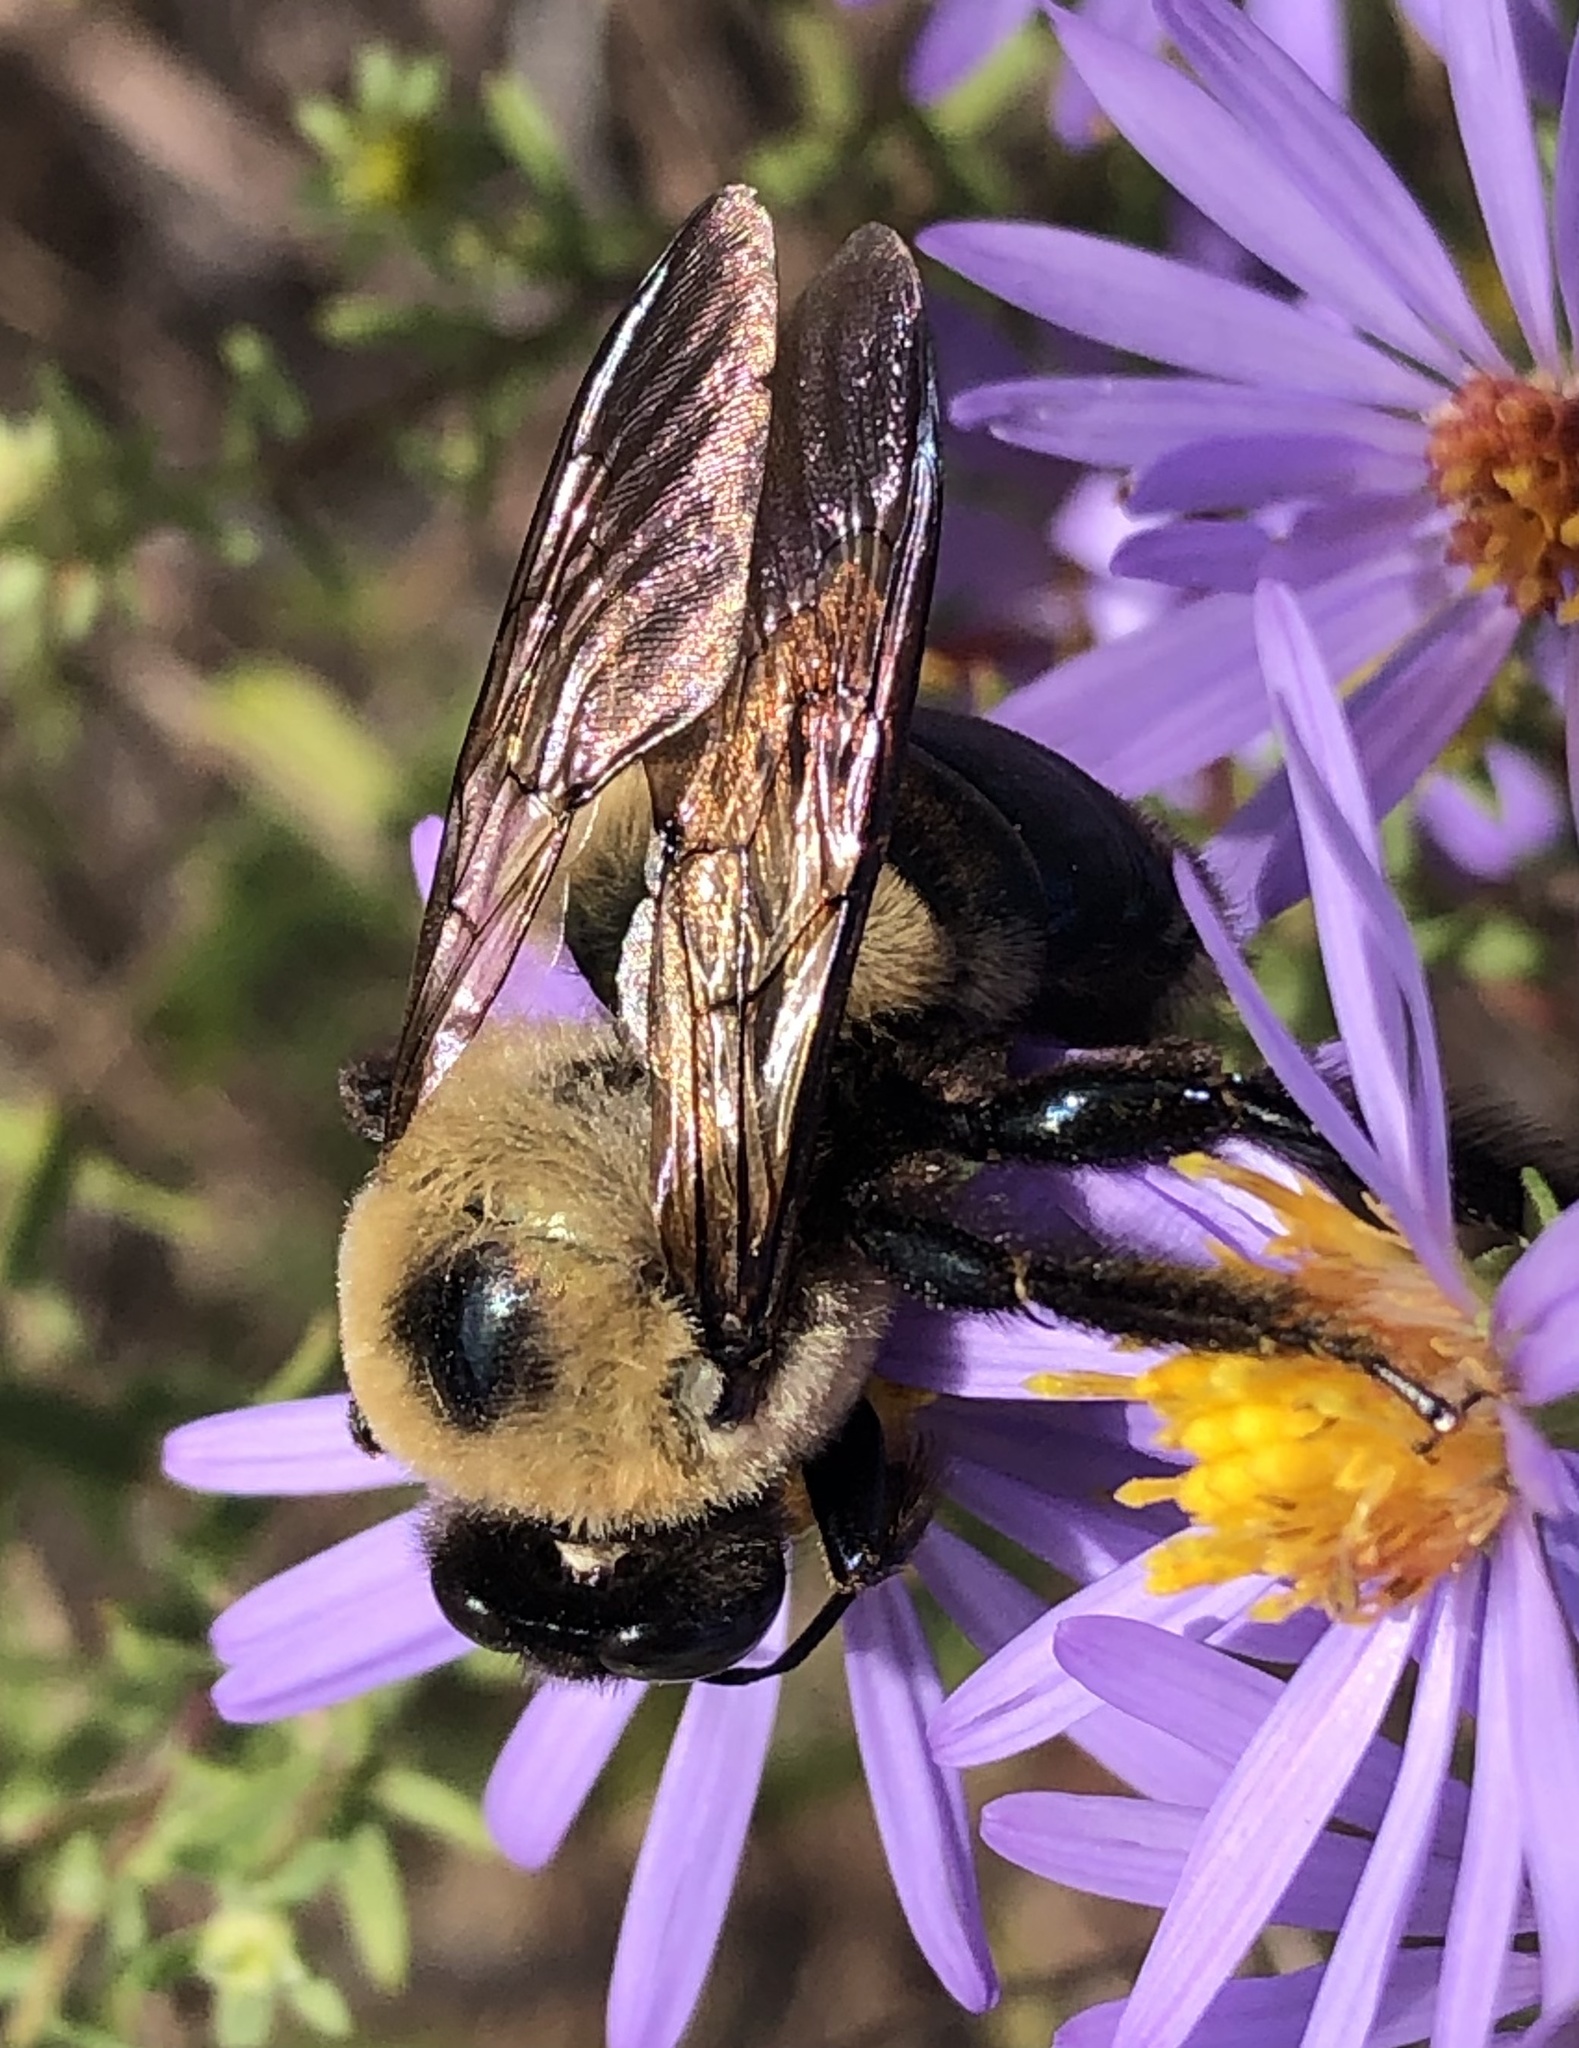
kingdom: Animalia
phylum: Arthropoda
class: Insecta
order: Hymenoptera
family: Apidae
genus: Xylocopa
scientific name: Xylocopa virginica
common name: Carpenter bee
